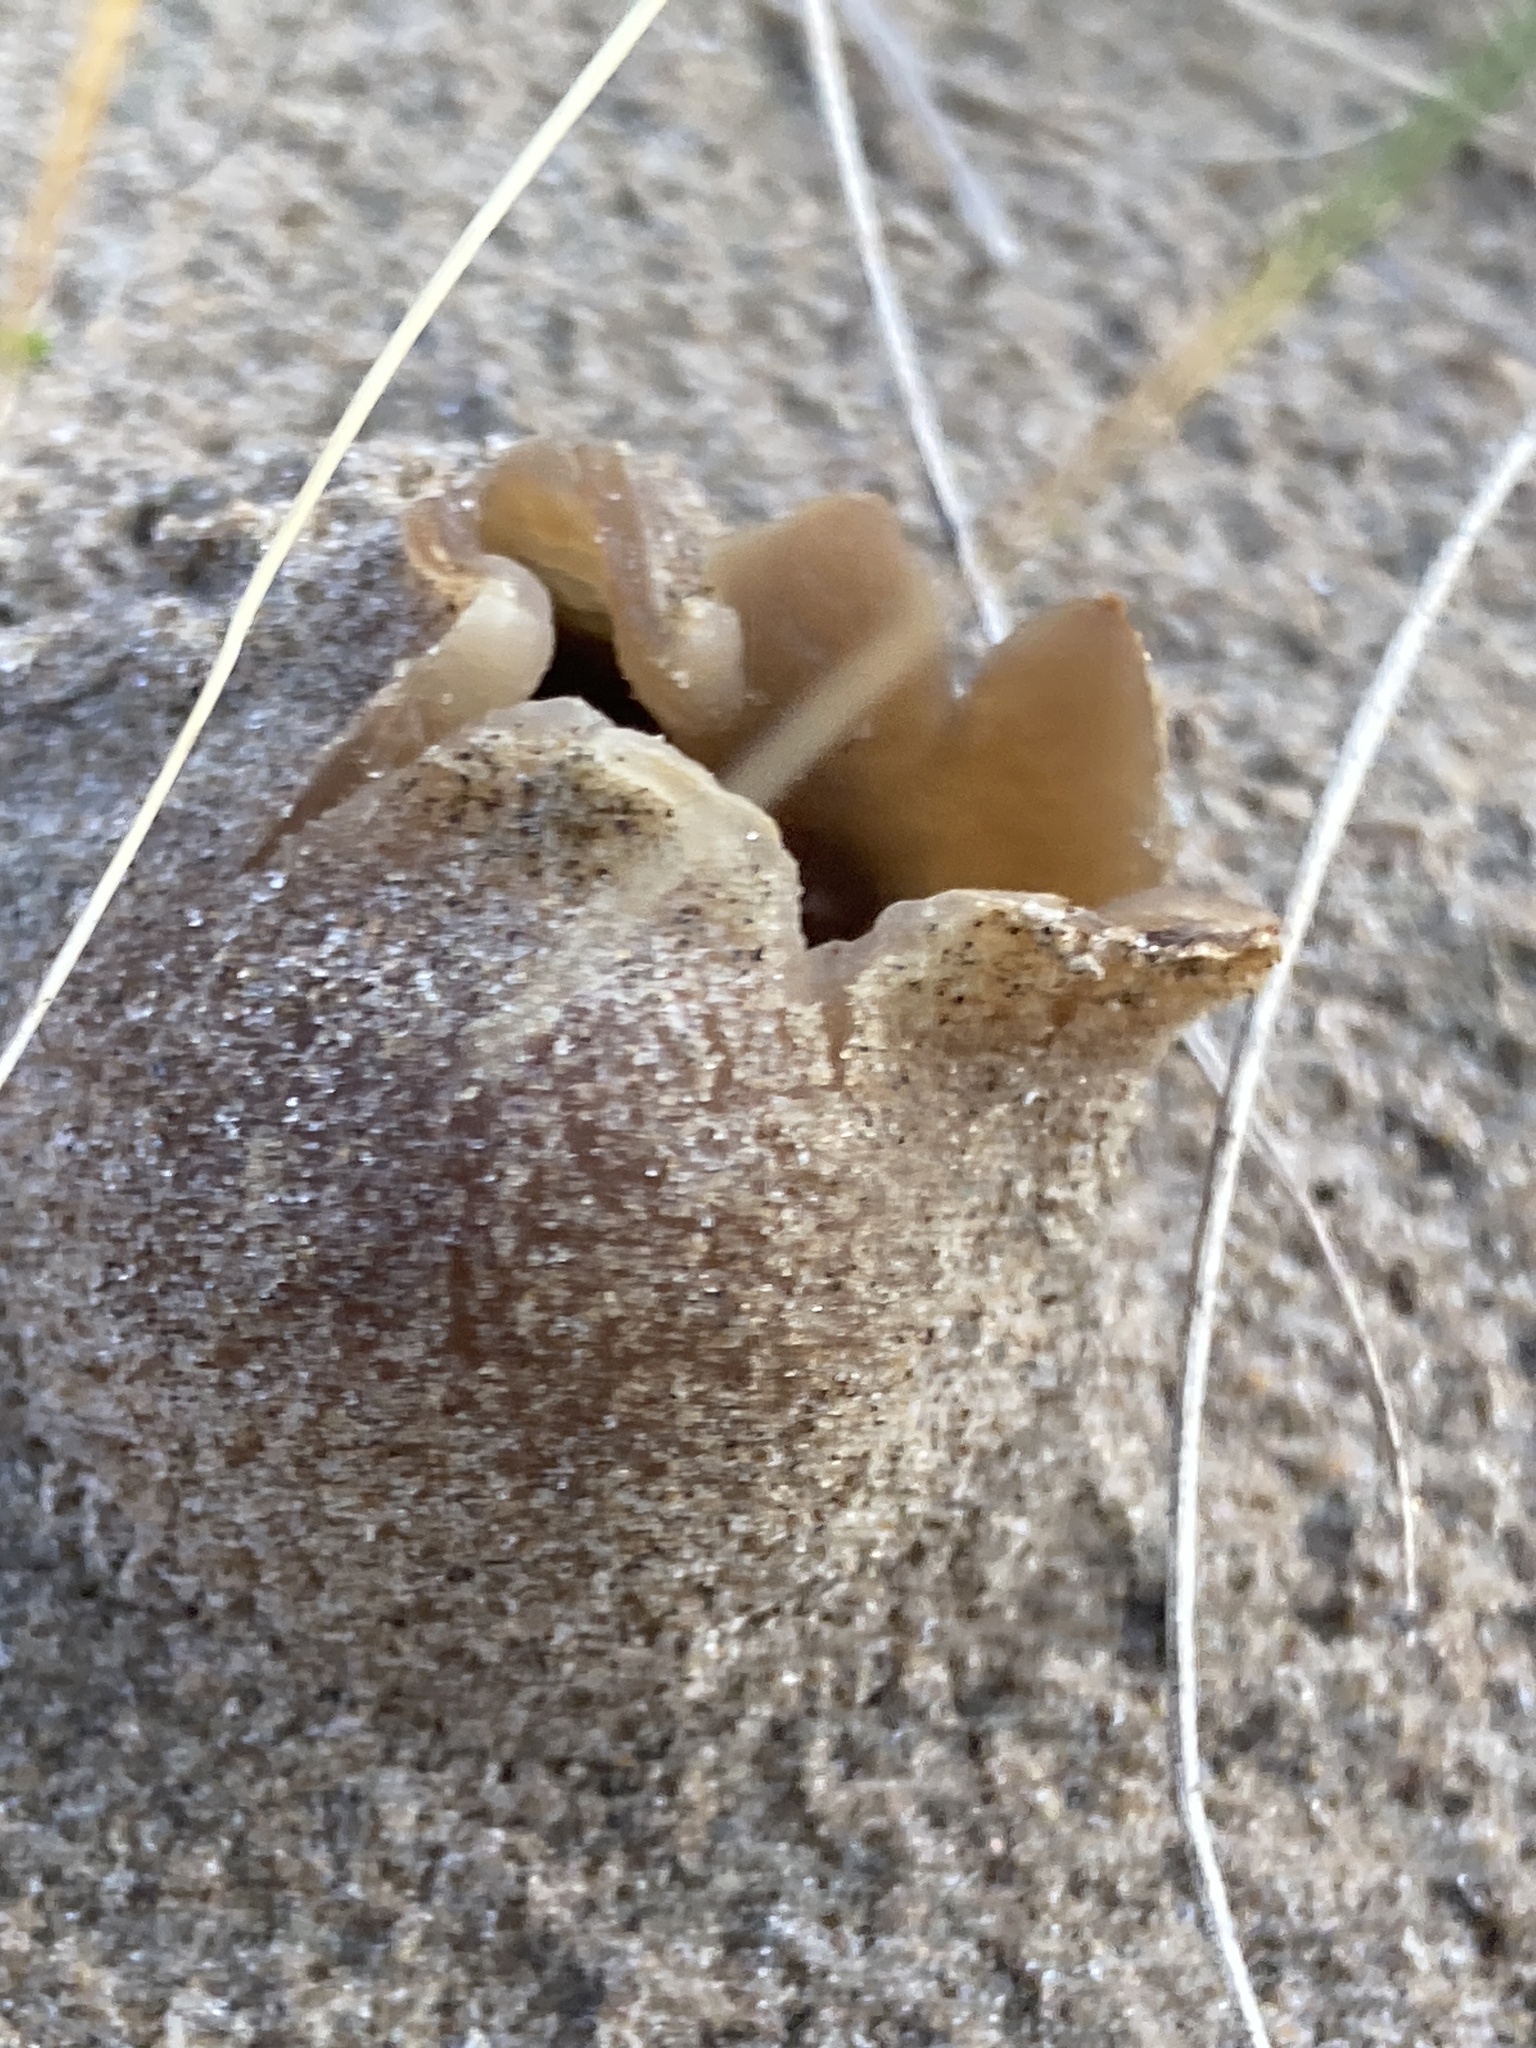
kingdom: Fungi
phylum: Ascomycota
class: Pezizomycetes
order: Pezizales
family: Pezizaceae
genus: Peziza
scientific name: Peziza ammophila
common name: Dune cup
